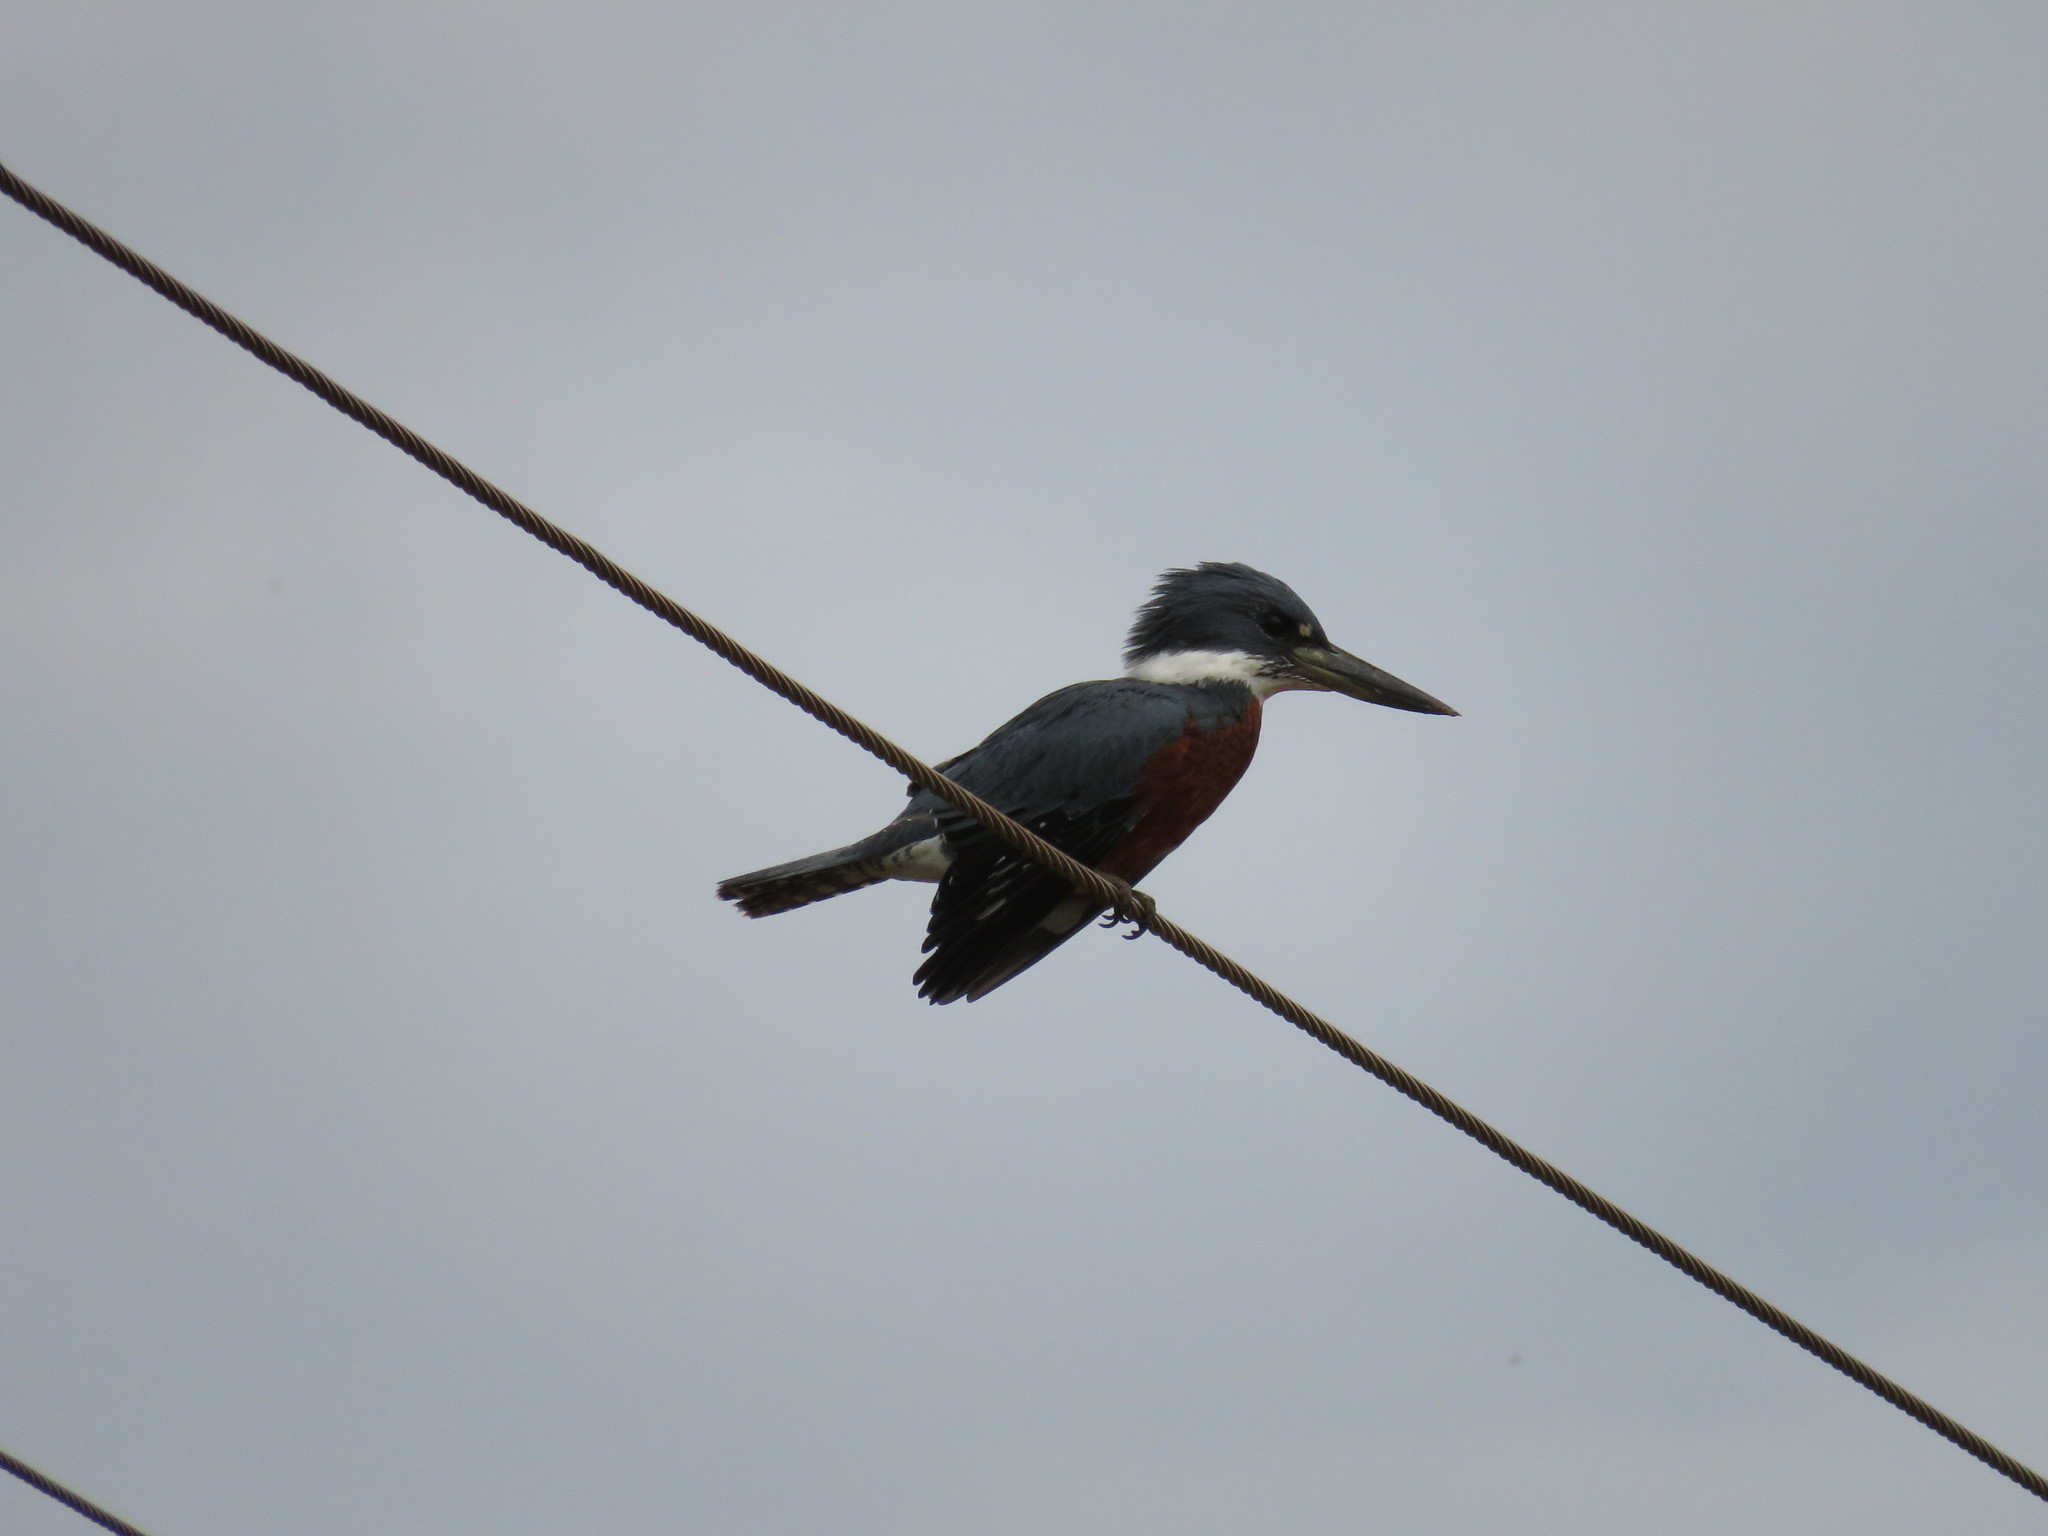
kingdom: Animalia
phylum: Chordata
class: Aves
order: Coraciiformes
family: Alcedinidae
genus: Megaceryle
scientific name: Megaceryle torquata
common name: Ringed kingfisher
